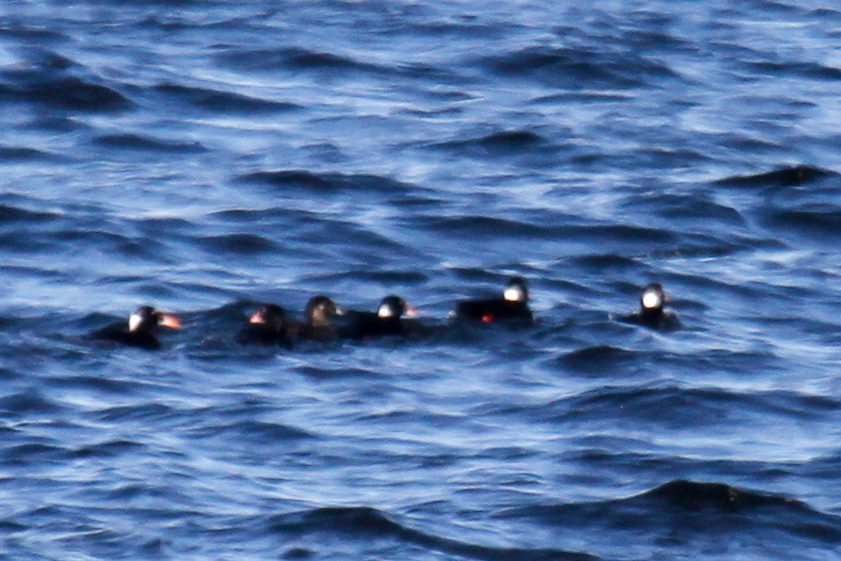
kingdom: Animalia
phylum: Chordata
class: Aves
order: Anseriformes
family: Anatidae
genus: Melanitta
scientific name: Melanitta perspicillata
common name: Surf scoter
